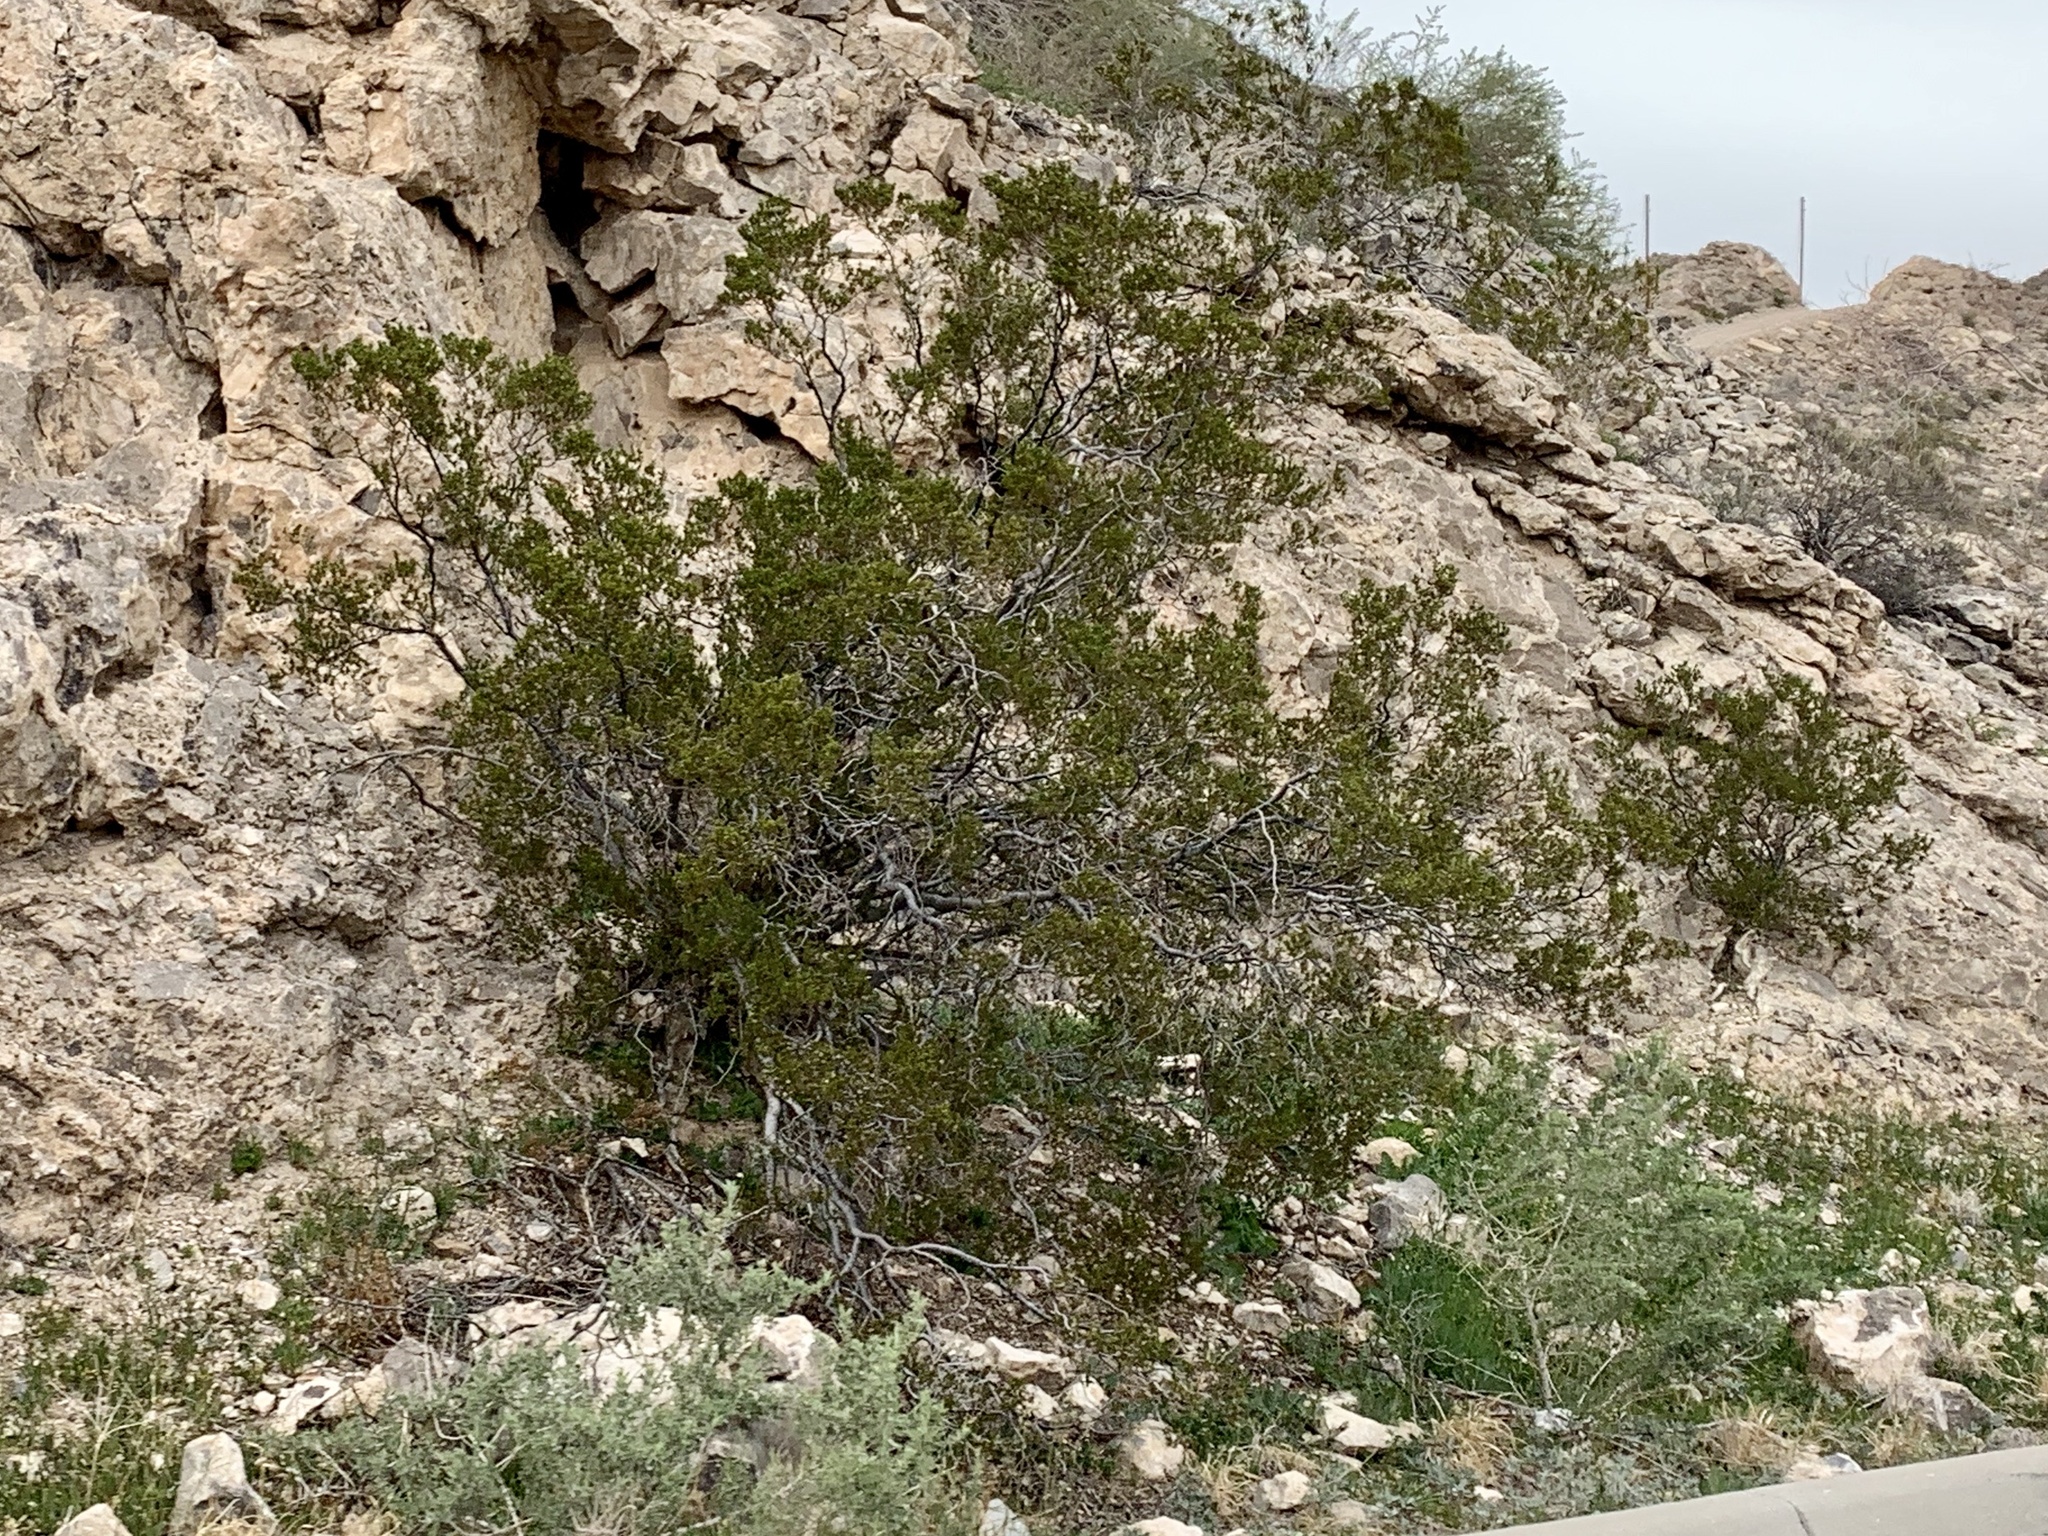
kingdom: Plantae
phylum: Tracheophyta
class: Magnoliopsida
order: Zygophyllales
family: Zygophyllaceae
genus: Larrea
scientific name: Larrea tridentata
